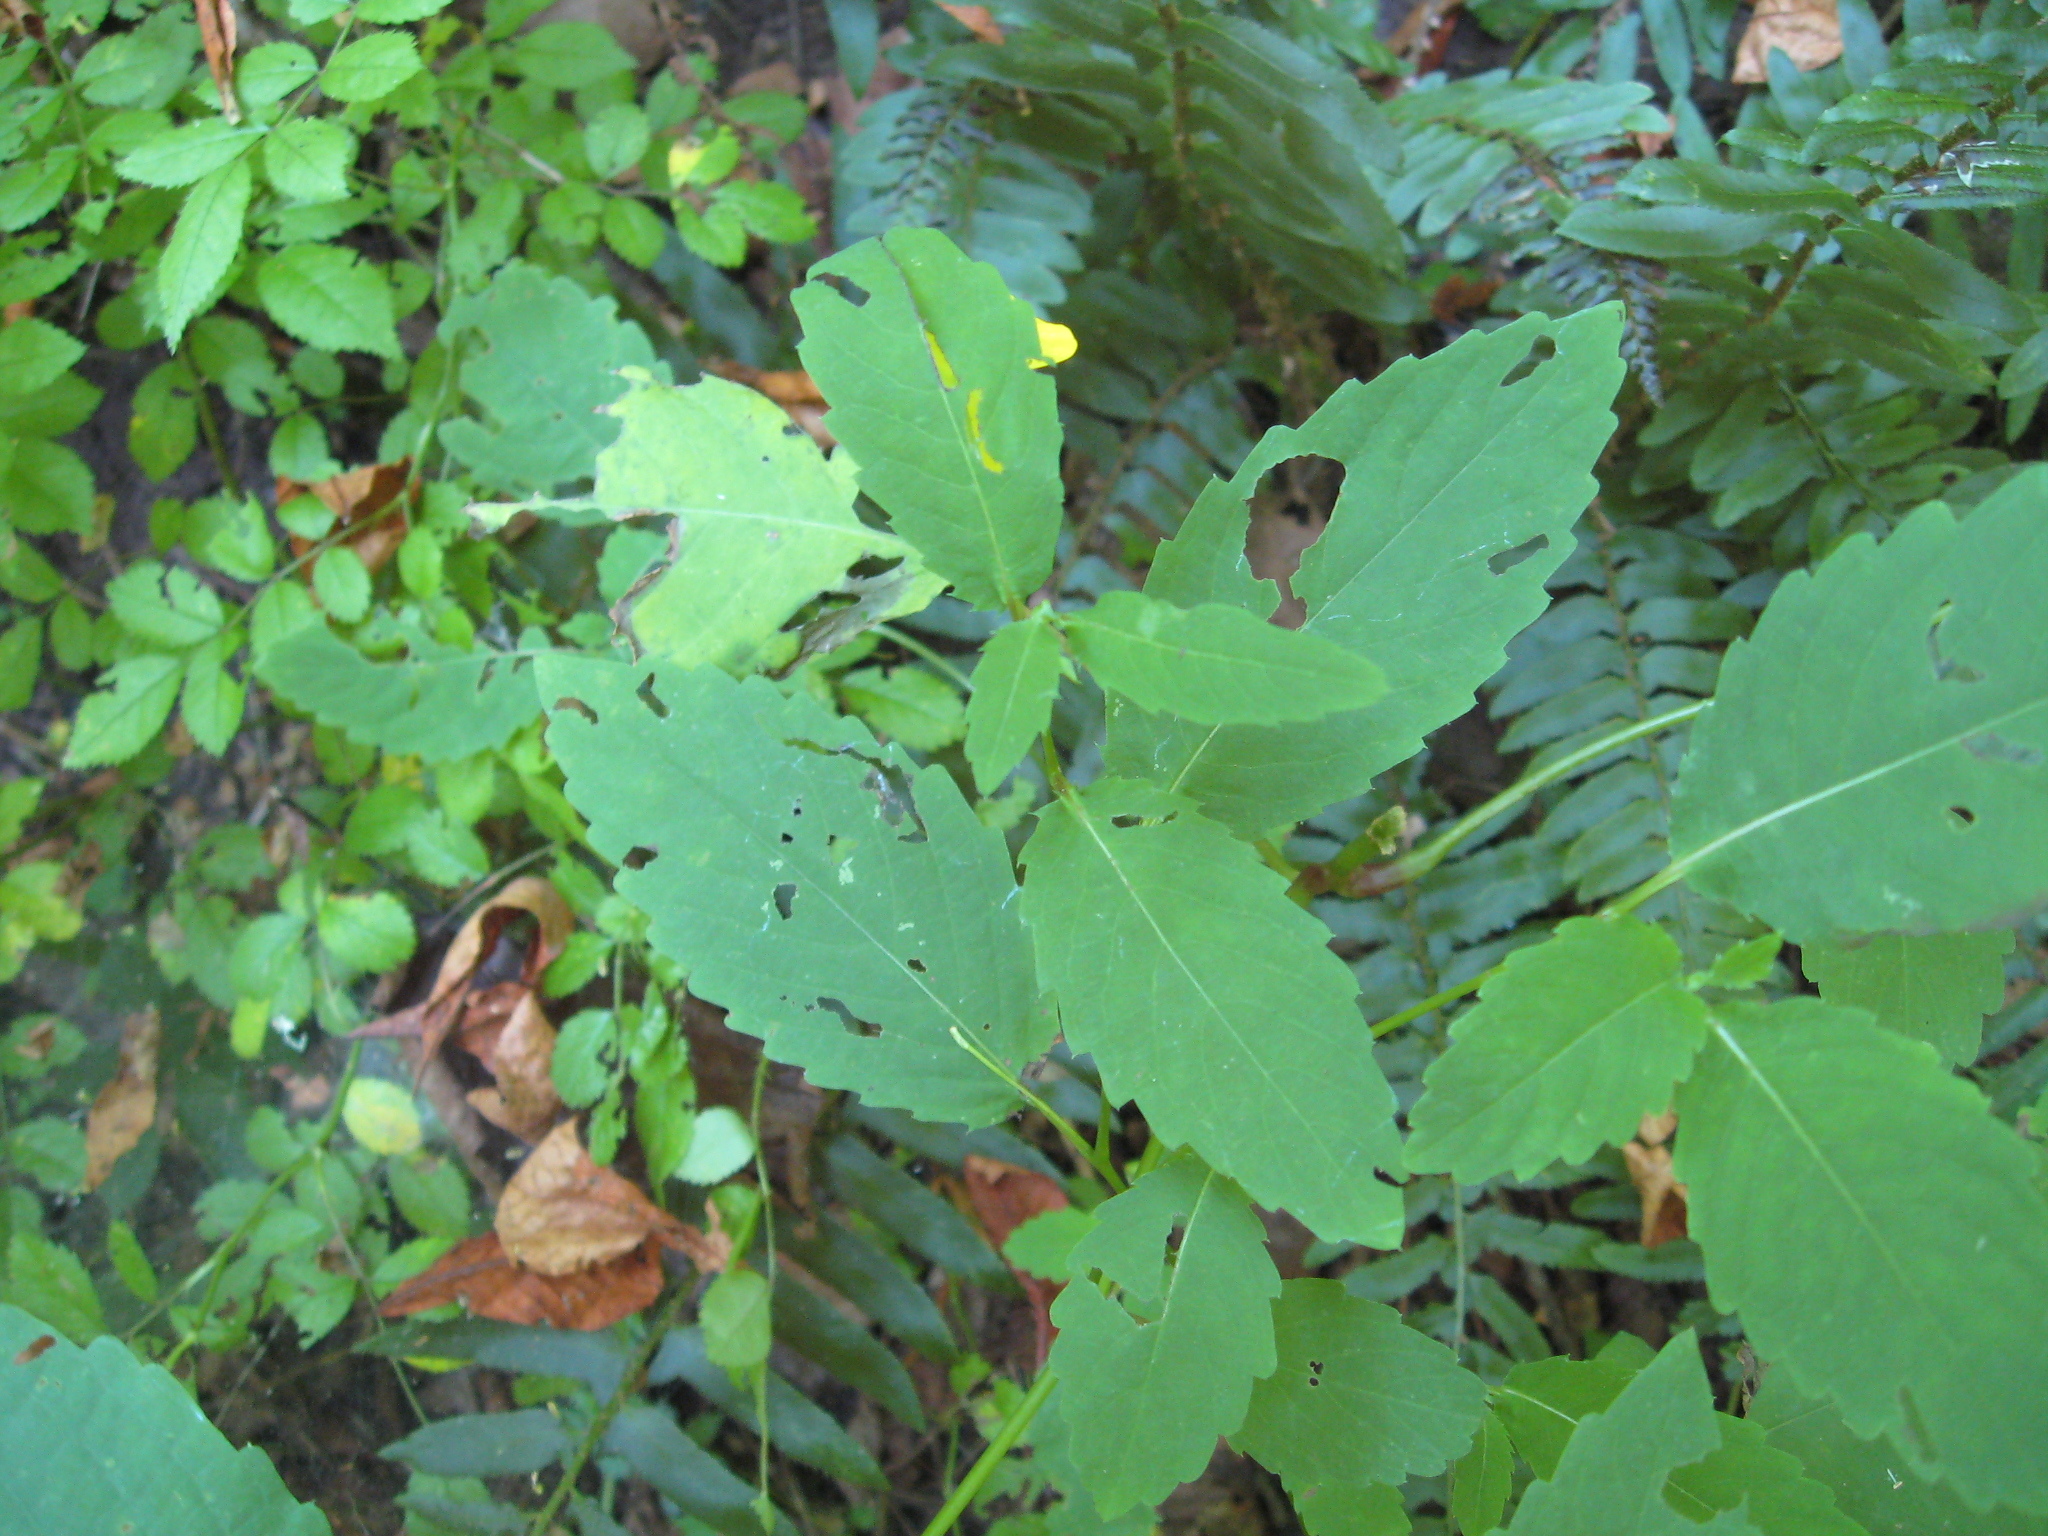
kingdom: Plantae
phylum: Tracheophyta
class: Magnoliopsida
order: Ericales
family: Balsaminaceae
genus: Impatiens
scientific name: Impatiens pallida
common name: Pale snapweed
